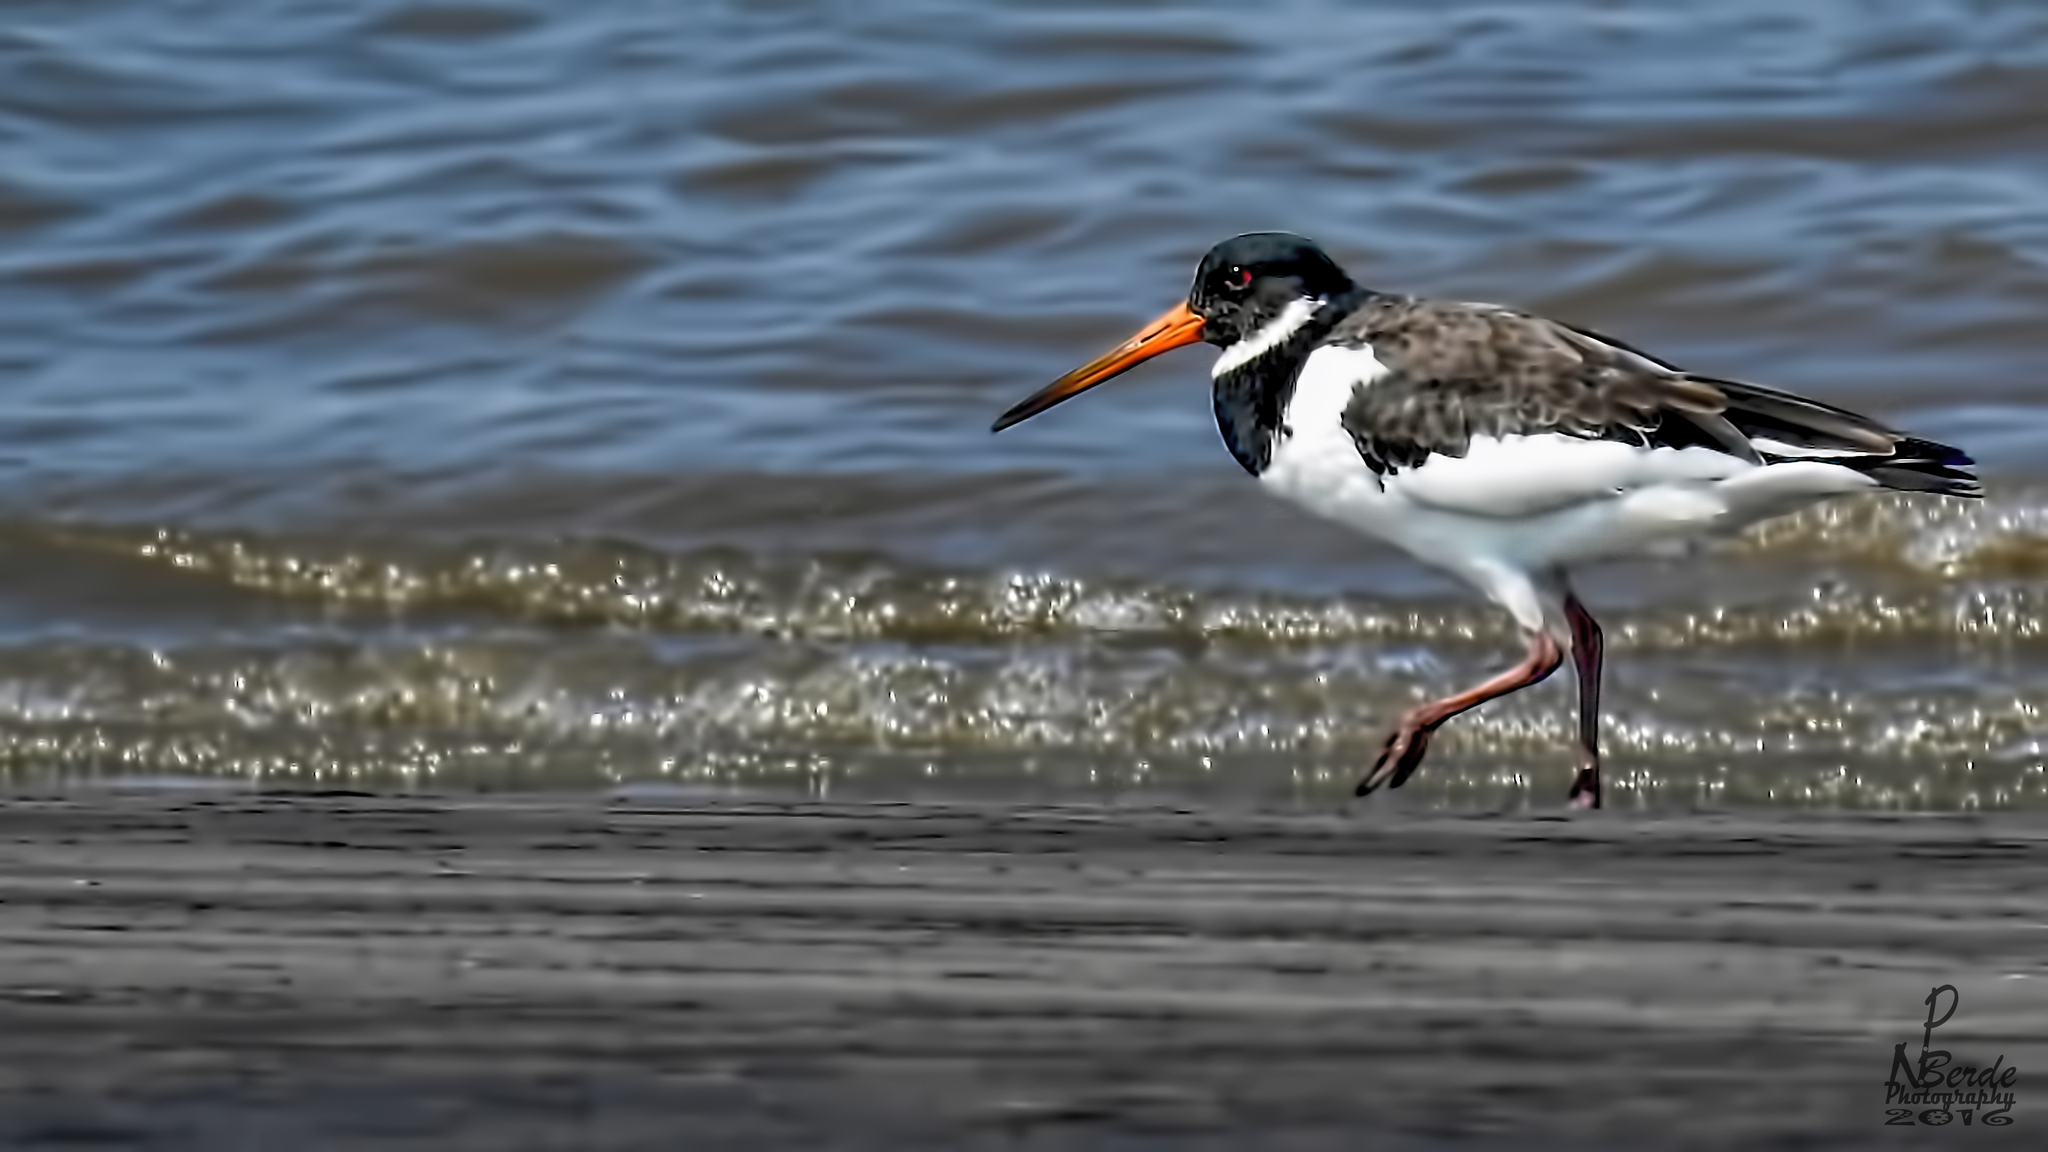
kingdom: Animalia
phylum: Chordata
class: Aves
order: Charadriiformes
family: Haematopodidae
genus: Haematopus
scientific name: Haematopus ostralegus
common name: Eurasian oystercatcher
